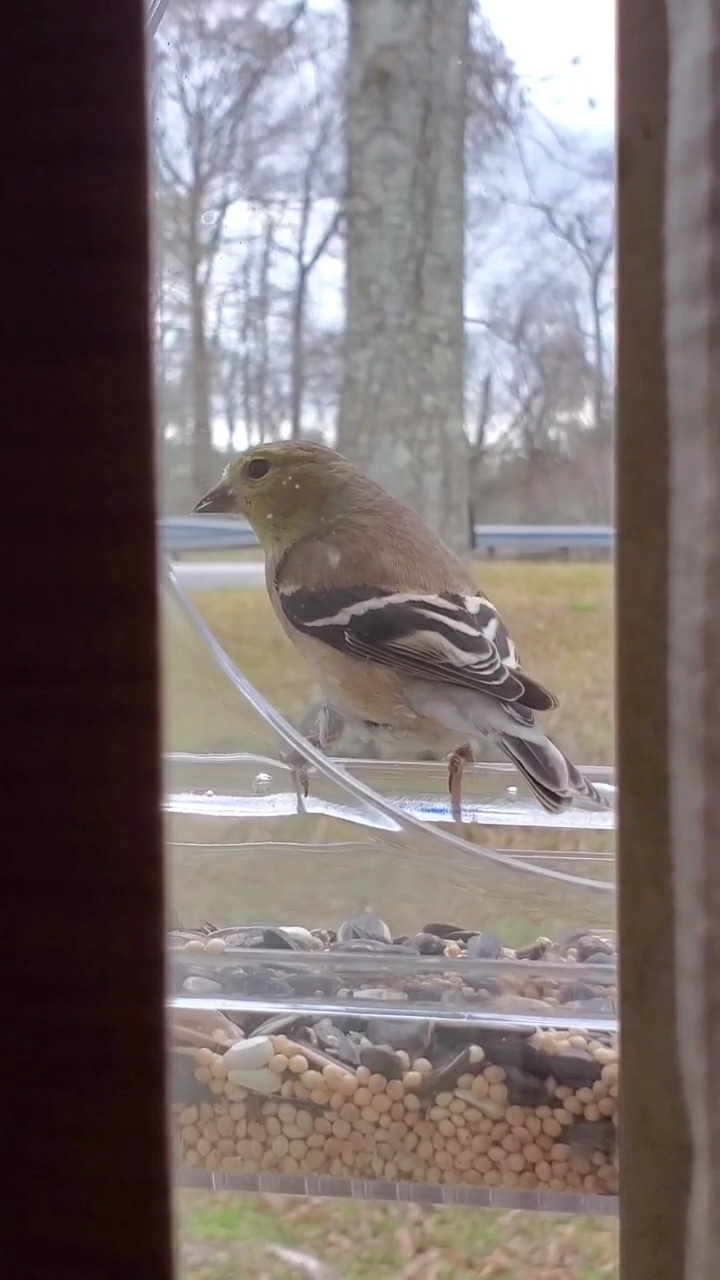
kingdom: Animalia
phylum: Chordata
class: Aves
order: Passeriformes
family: Fringillidae
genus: Spinus
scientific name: Spinus tristis
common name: American goldfinch
